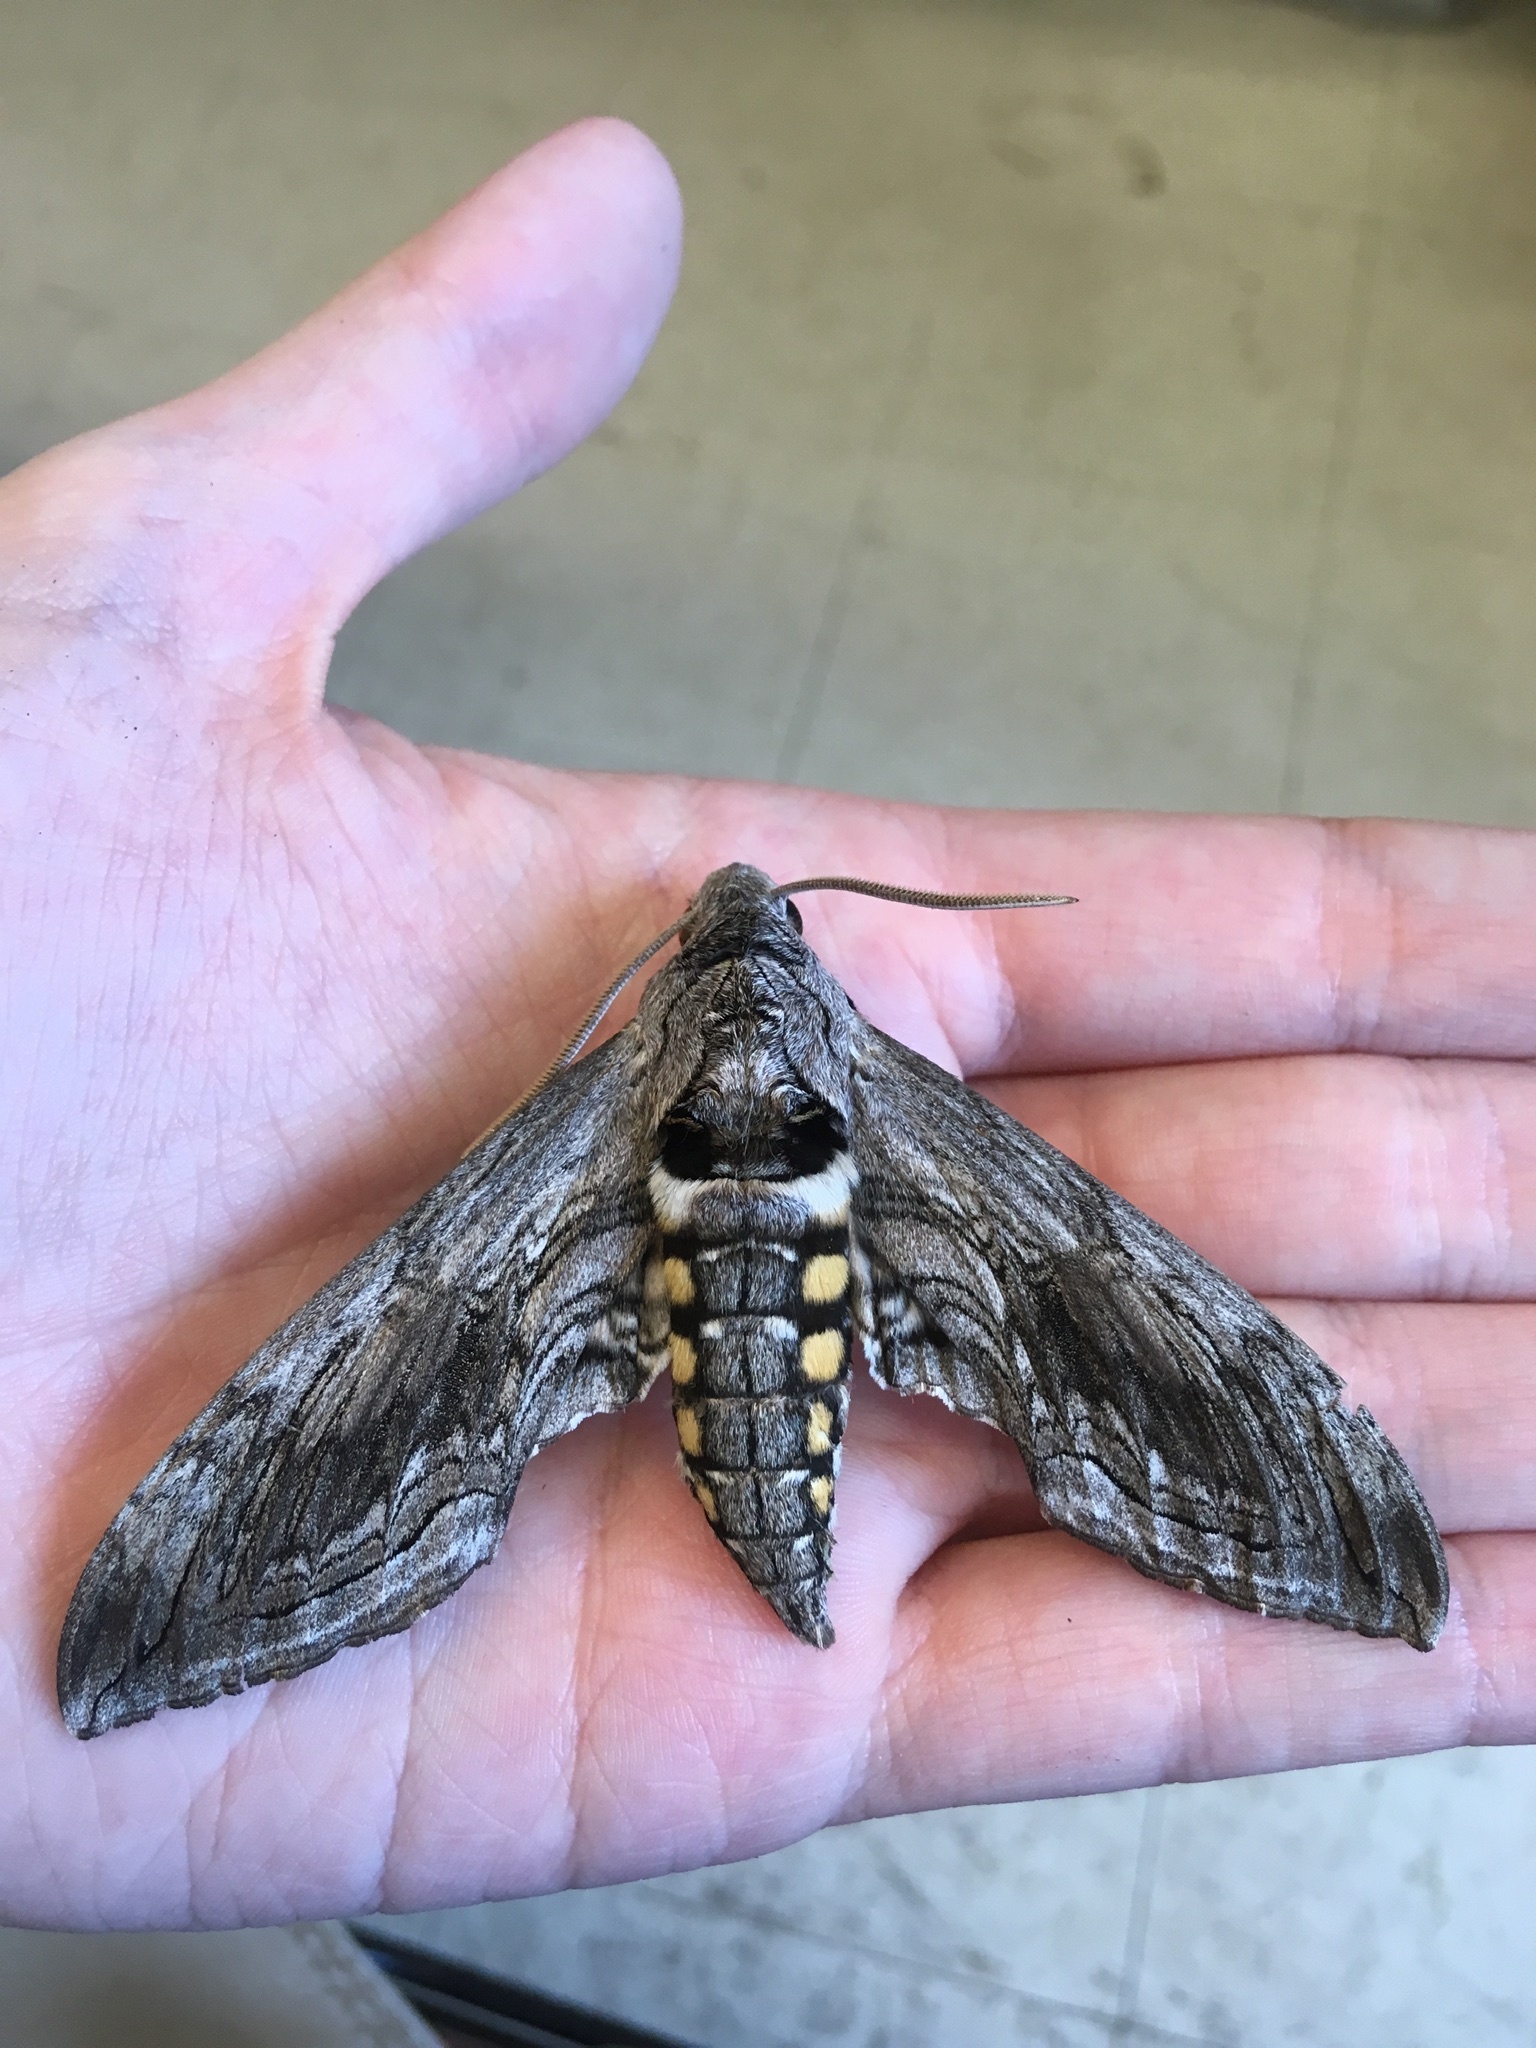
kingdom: Animalia
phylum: Arthropoda
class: Insecta
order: Lepidoptera
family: Sphingidae
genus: Manduca
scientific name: Manduca quinquemaculatus
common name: Five-spotted hawk-moth
